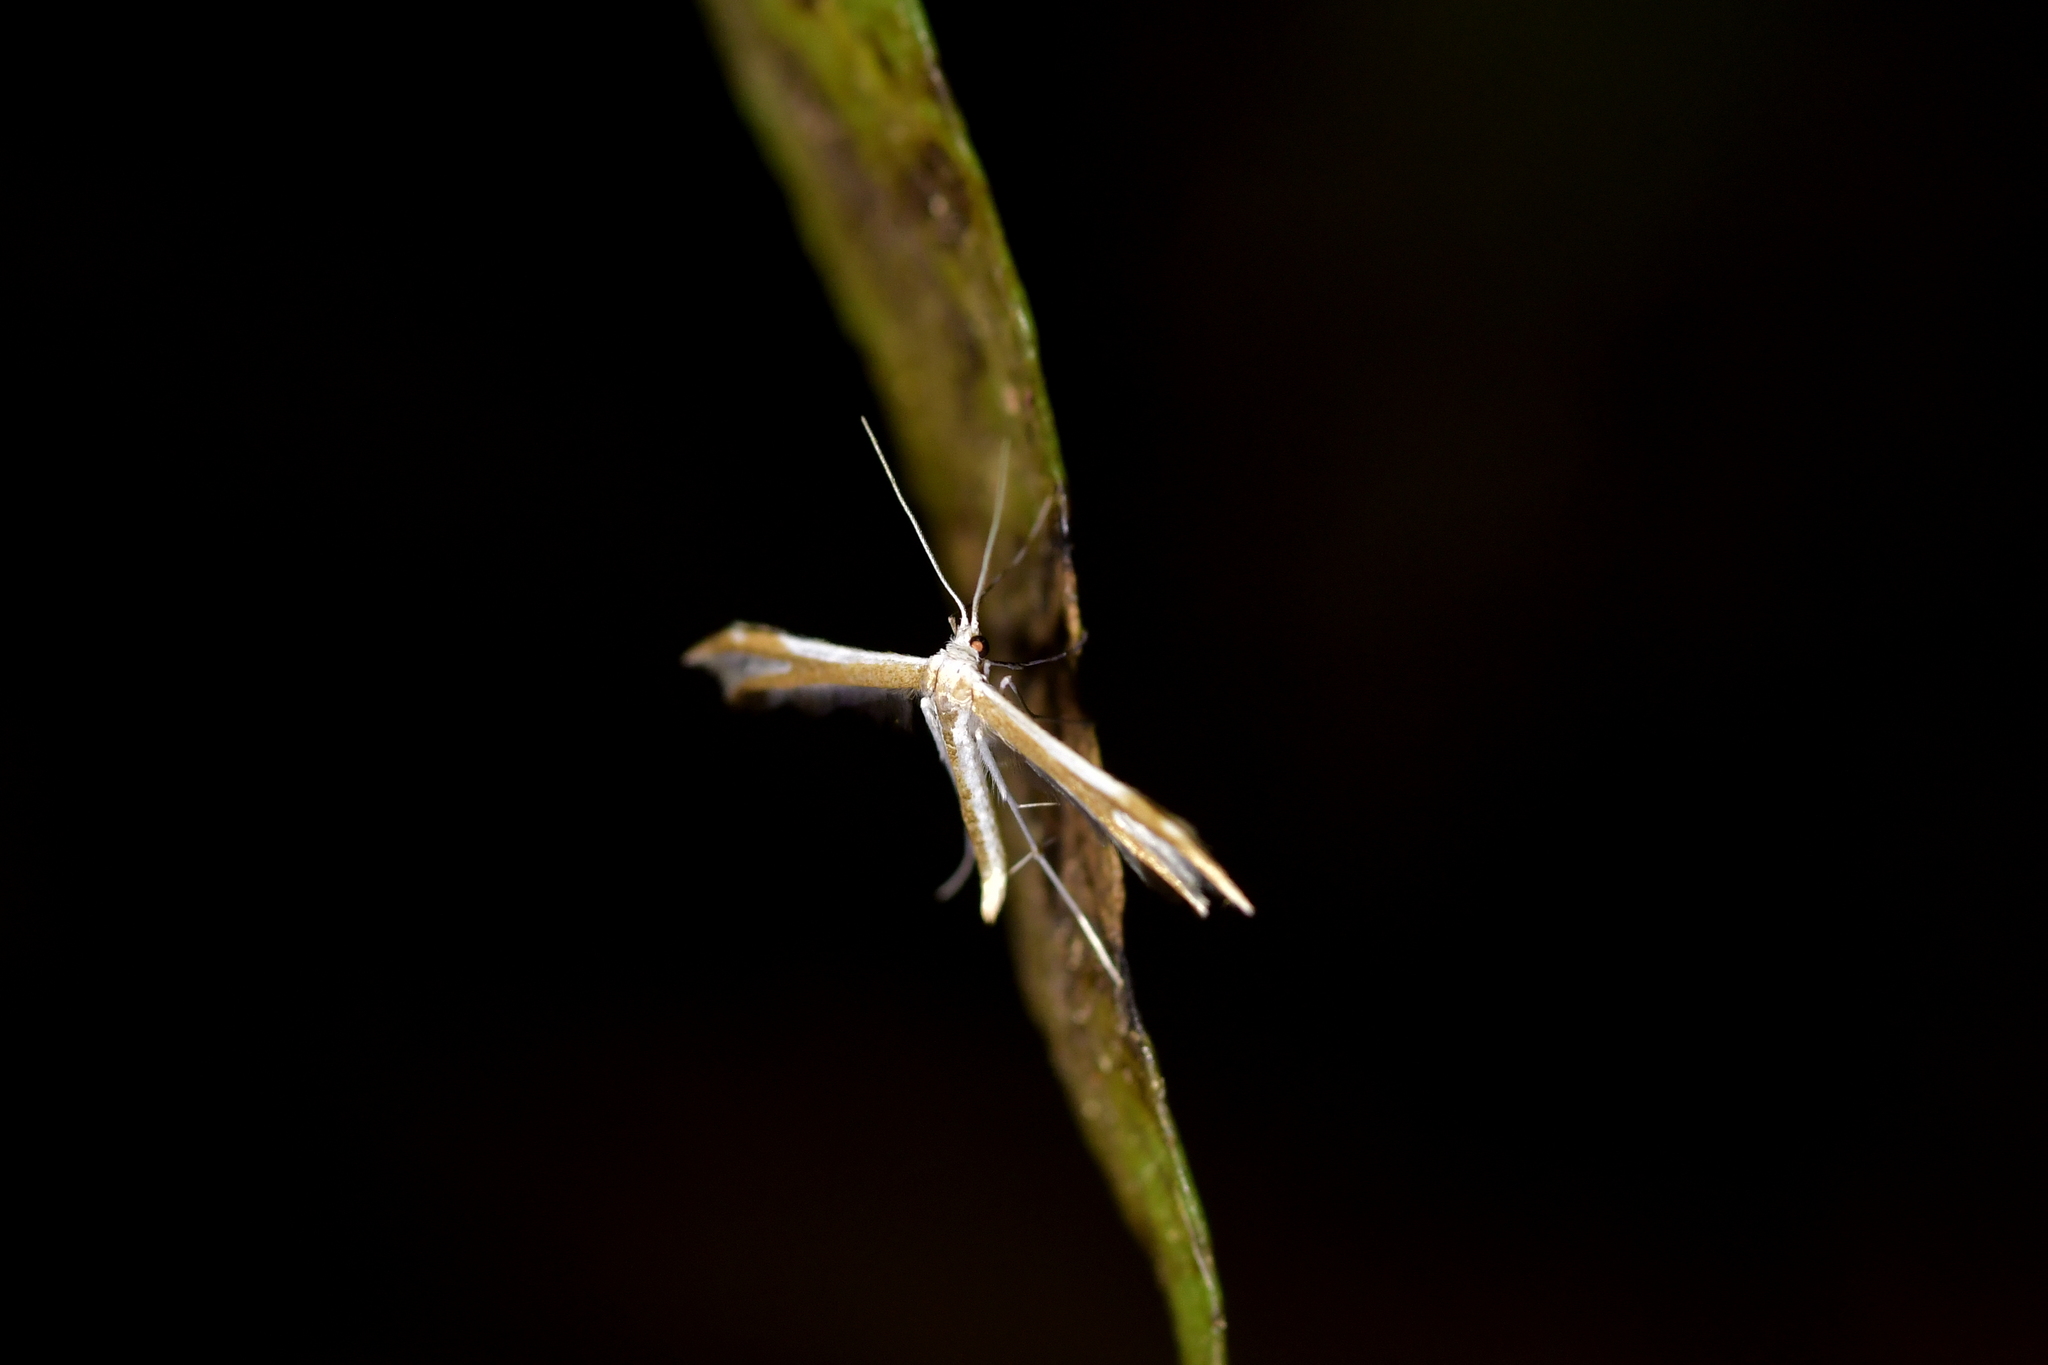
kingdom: Animalia
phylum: Arthropoda
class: Insecta
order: Lepidoptera
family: Pterophoridae
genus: Pterophorus
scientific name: Pterophorus furcatalis
